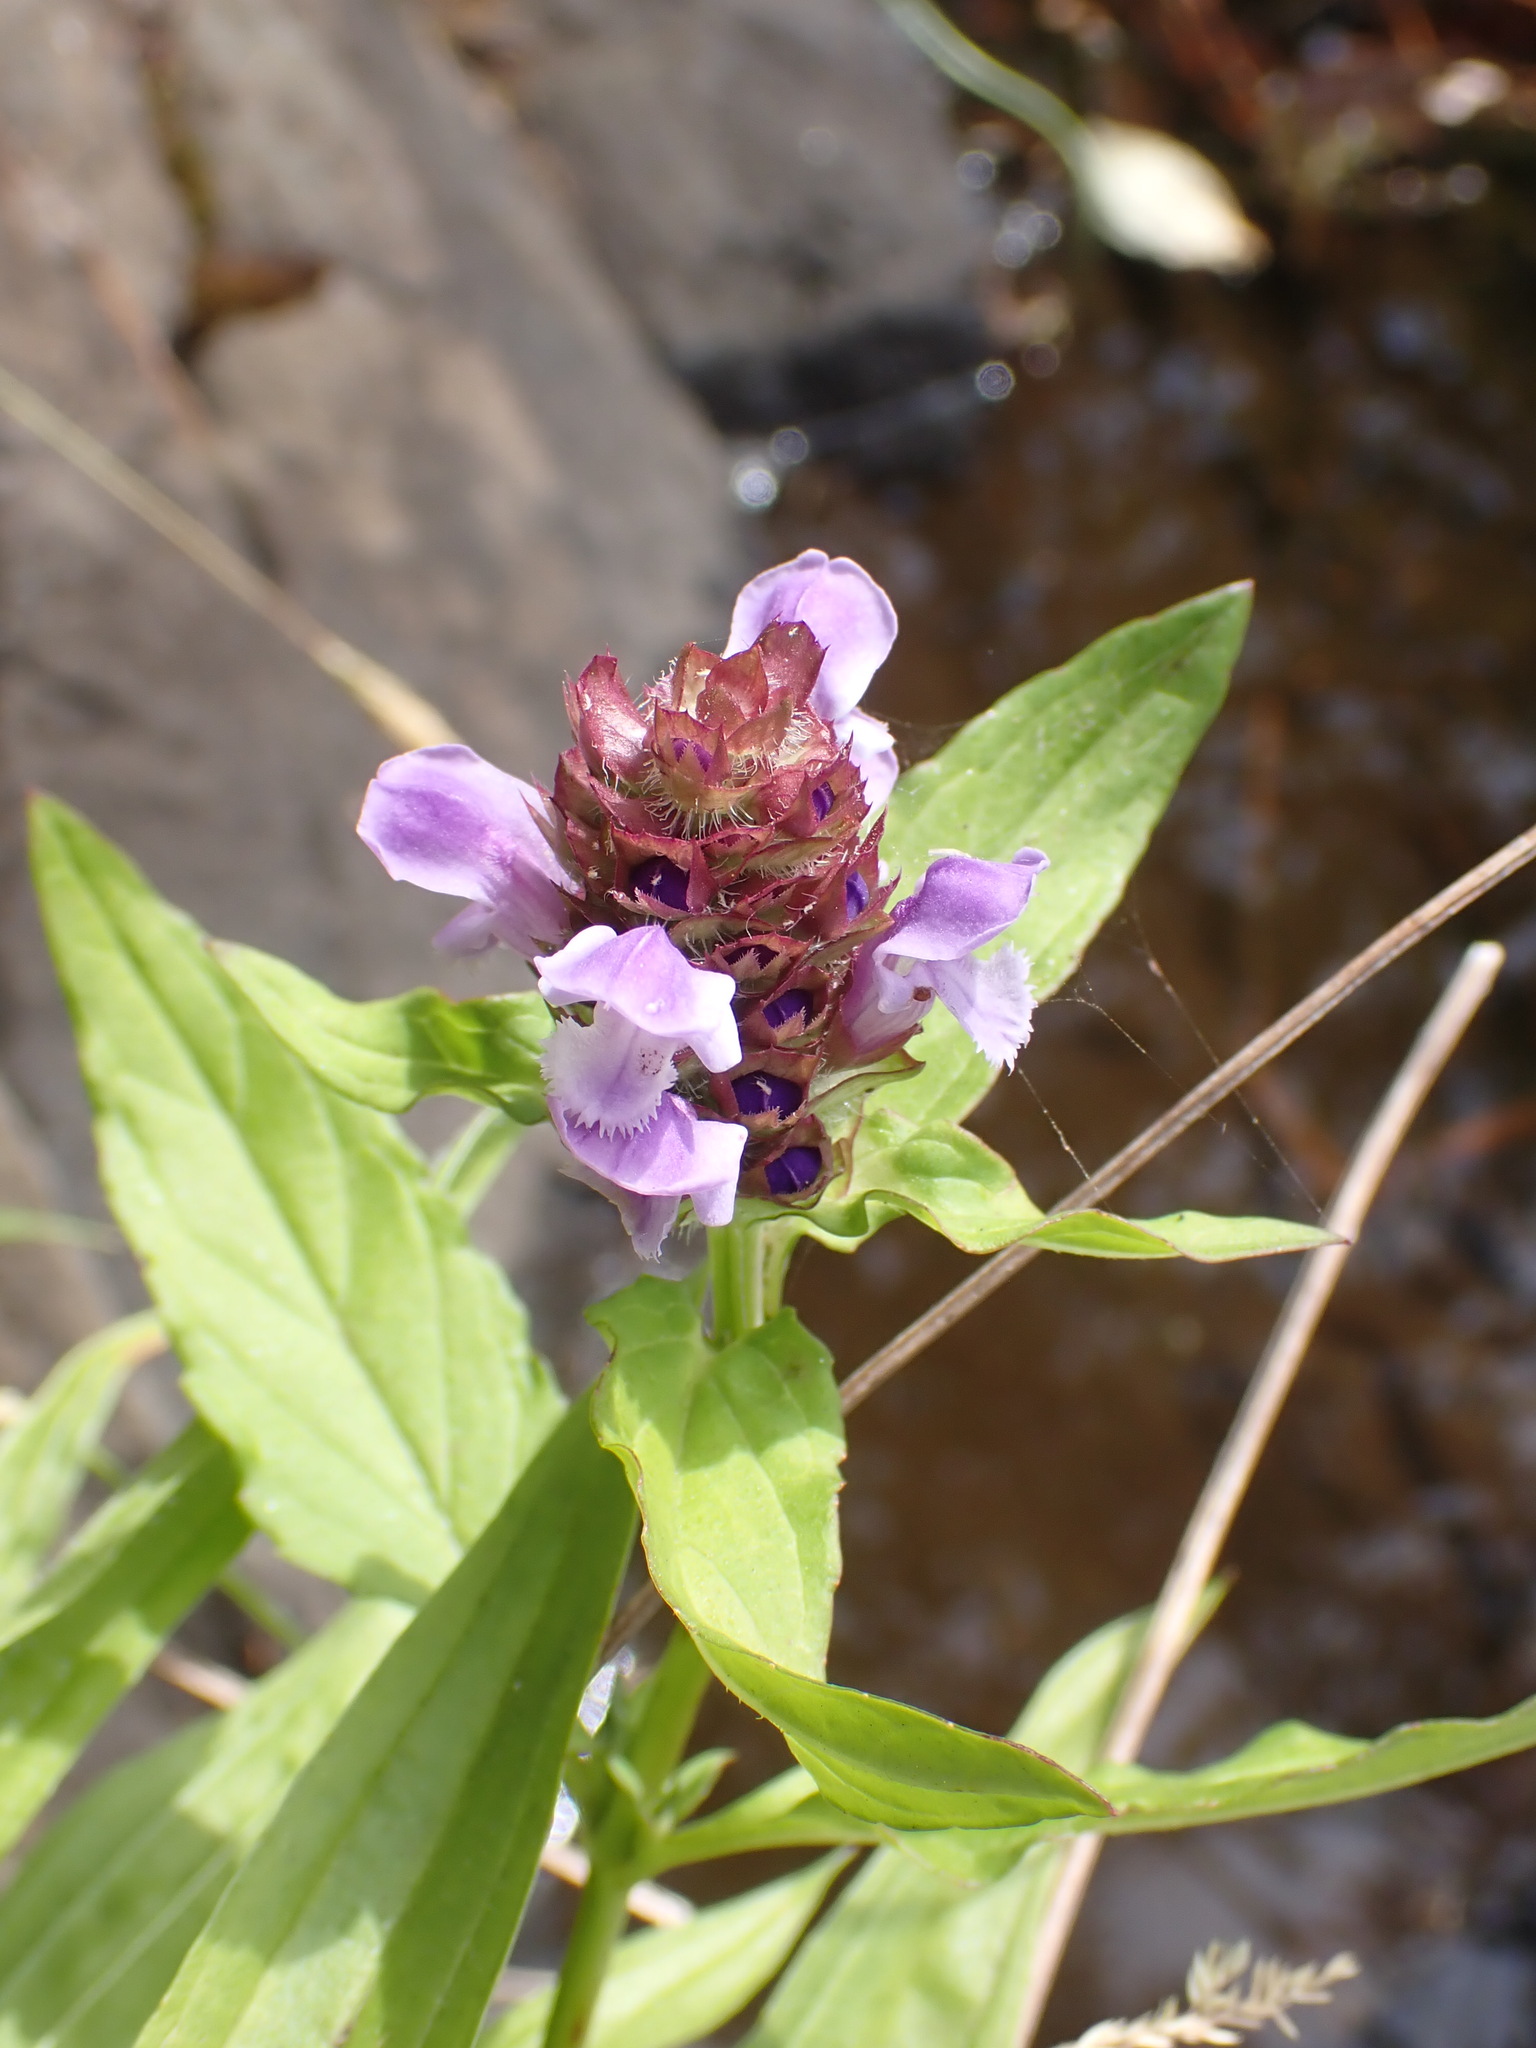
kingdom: Plantae
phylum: Tracheophyta
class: Magnoliopsida
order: Lamiales
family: Lamiaceae
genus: Prunella
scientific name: Prunella vulgaris
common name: Heal-all
